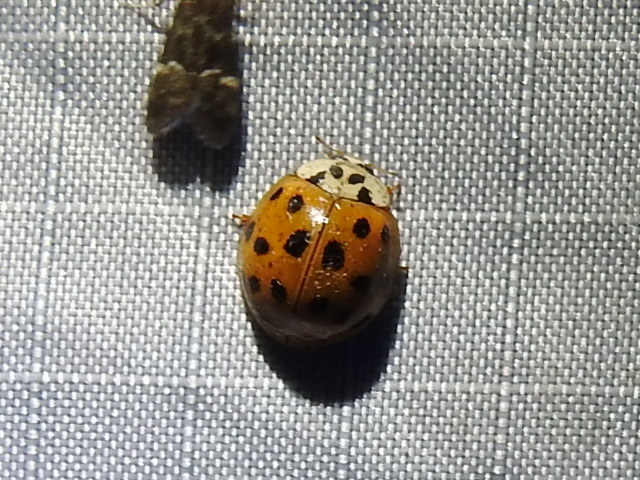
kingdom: Animalia
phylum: Arthropoda
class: Insecta
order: Coleoptera
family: Coccinellidae
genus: Harmonia
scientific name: Harmonia axyridis
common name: Harlequin ladybird
